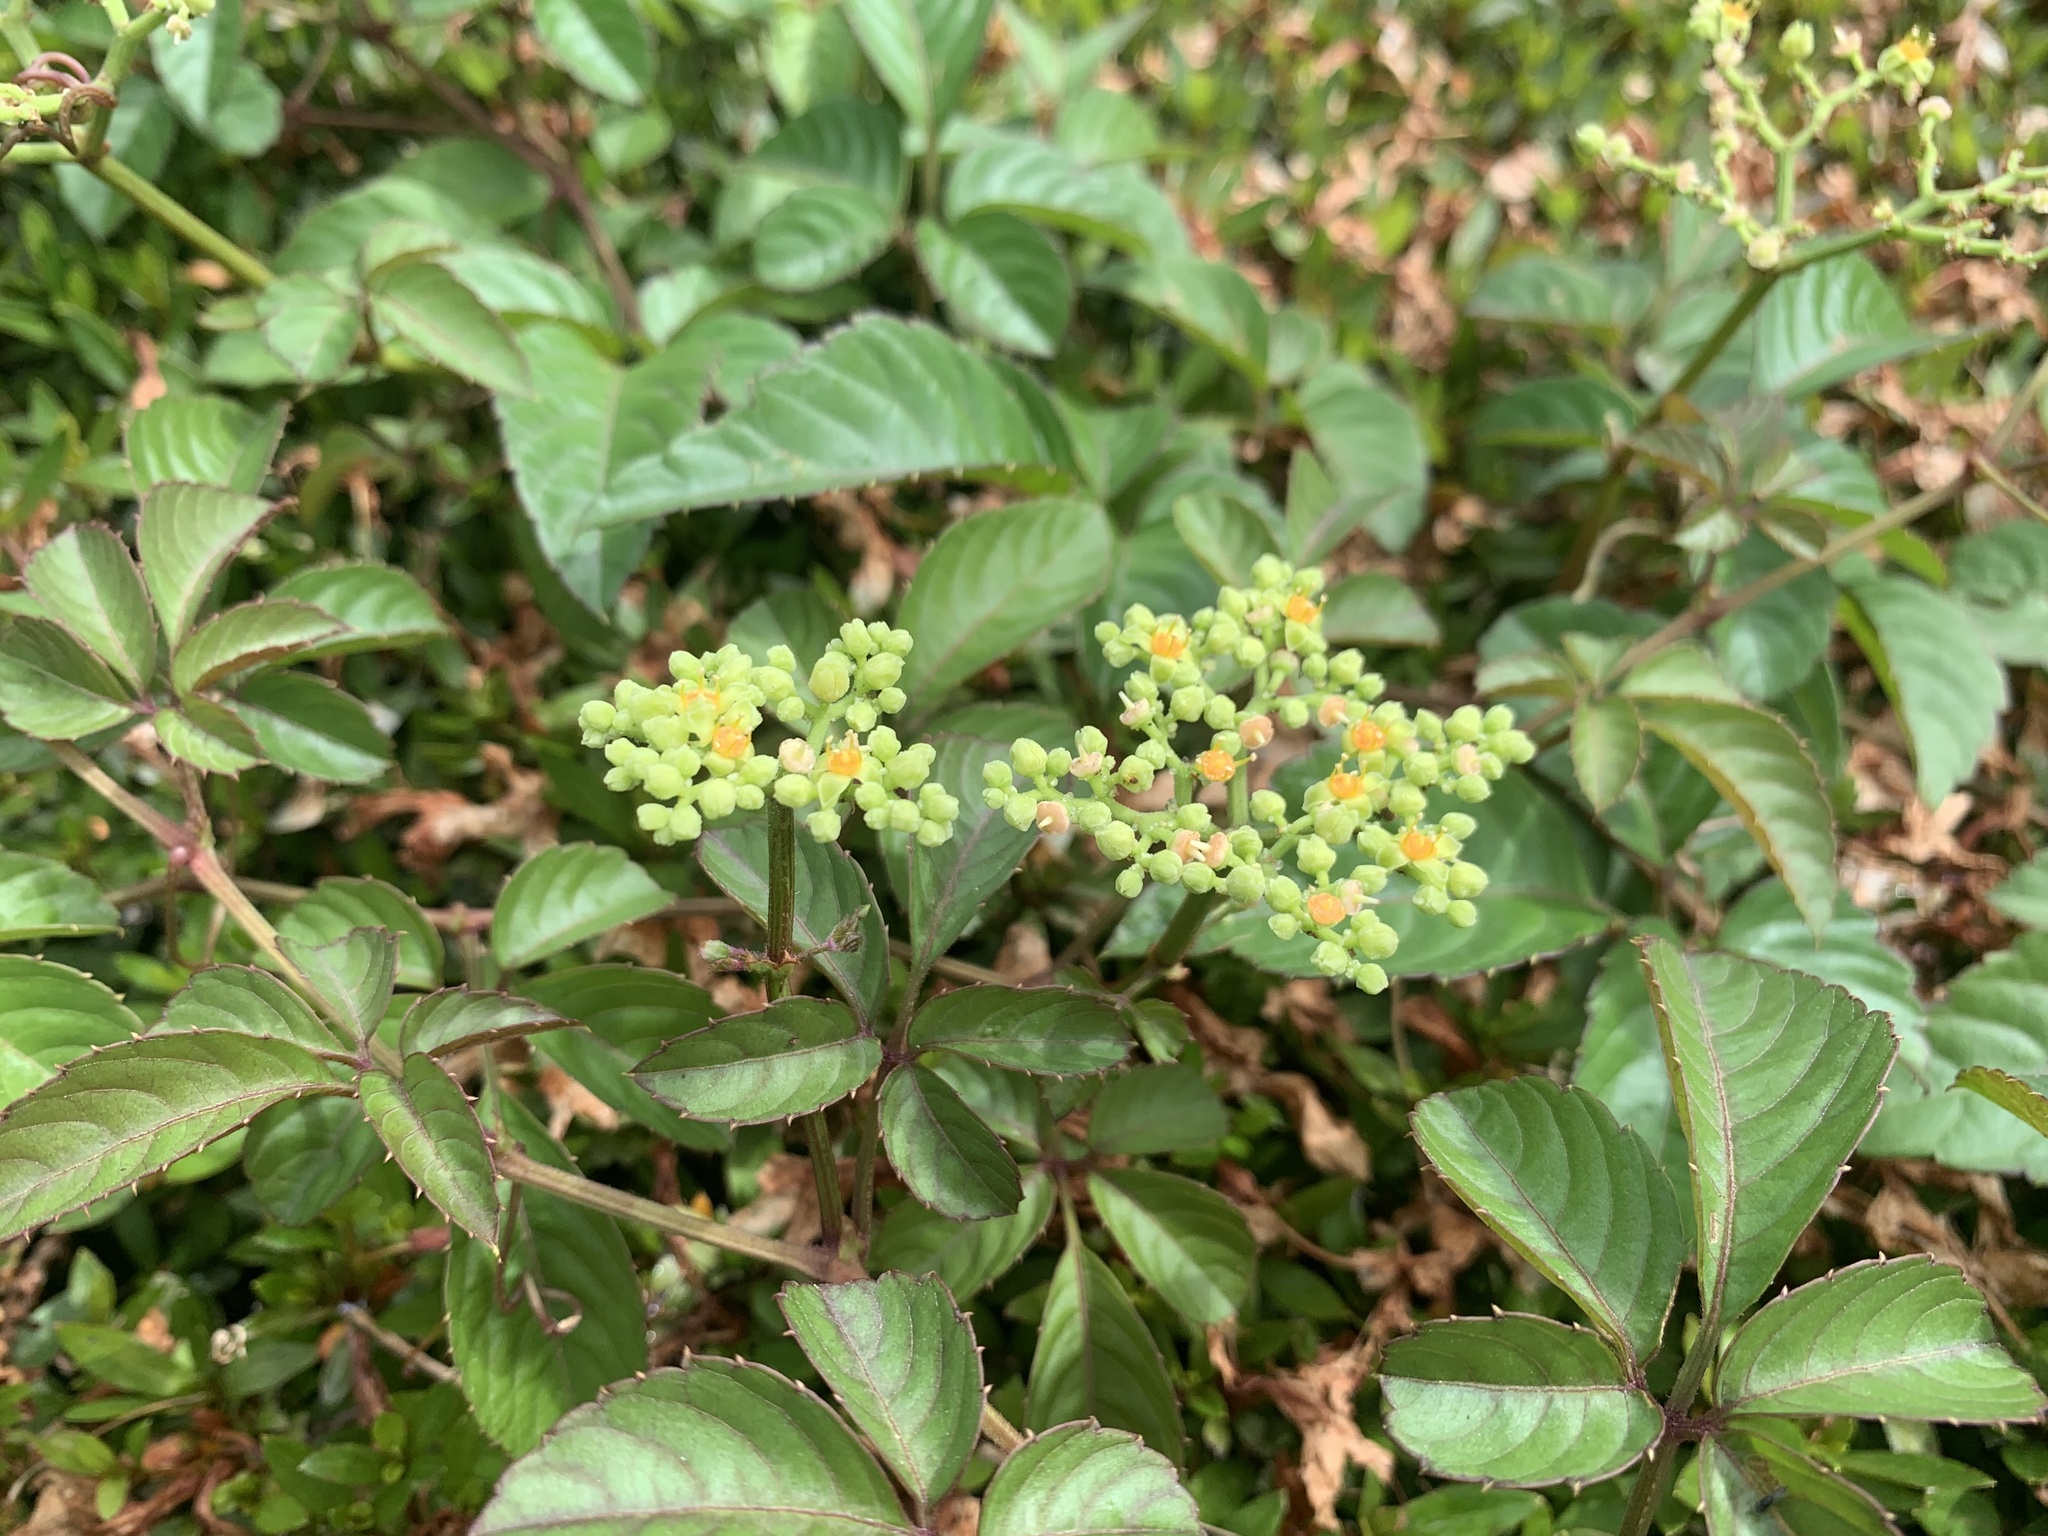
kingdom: Plantae
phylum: Tracheophyta
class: Magnoliopsida
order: Vitales
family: Vitaceae
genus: Causonis
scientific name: Causonis japonica
